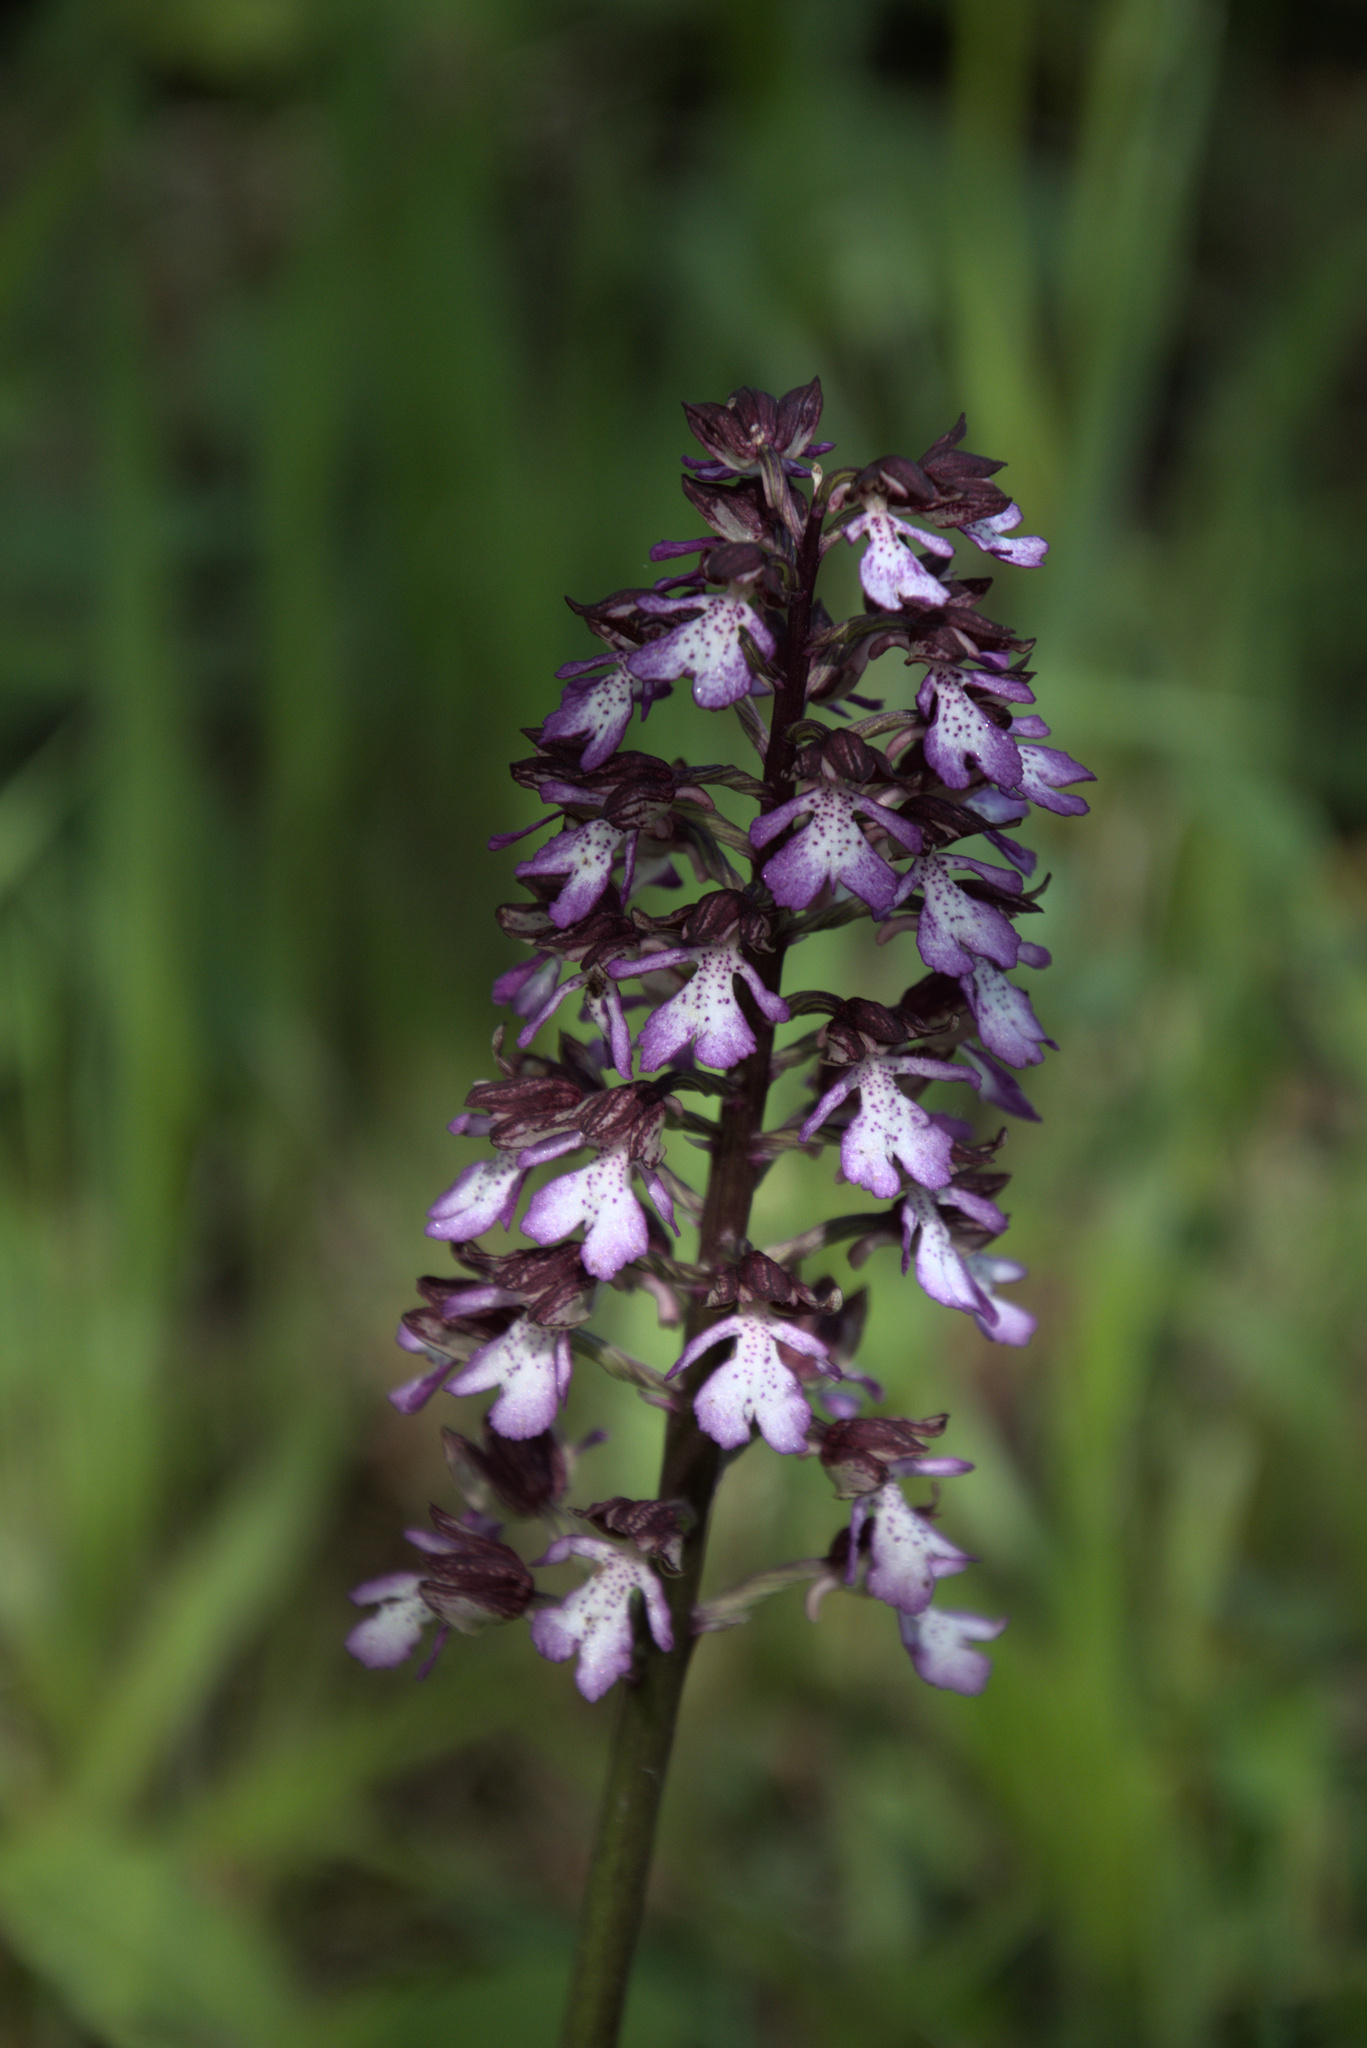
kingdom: Plantae
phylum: Tracheophyta
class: Liliopsida
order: Asparagales
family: Orchidaceae
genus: Orchis
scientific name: Orchis purpurea
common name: Lady orchid
